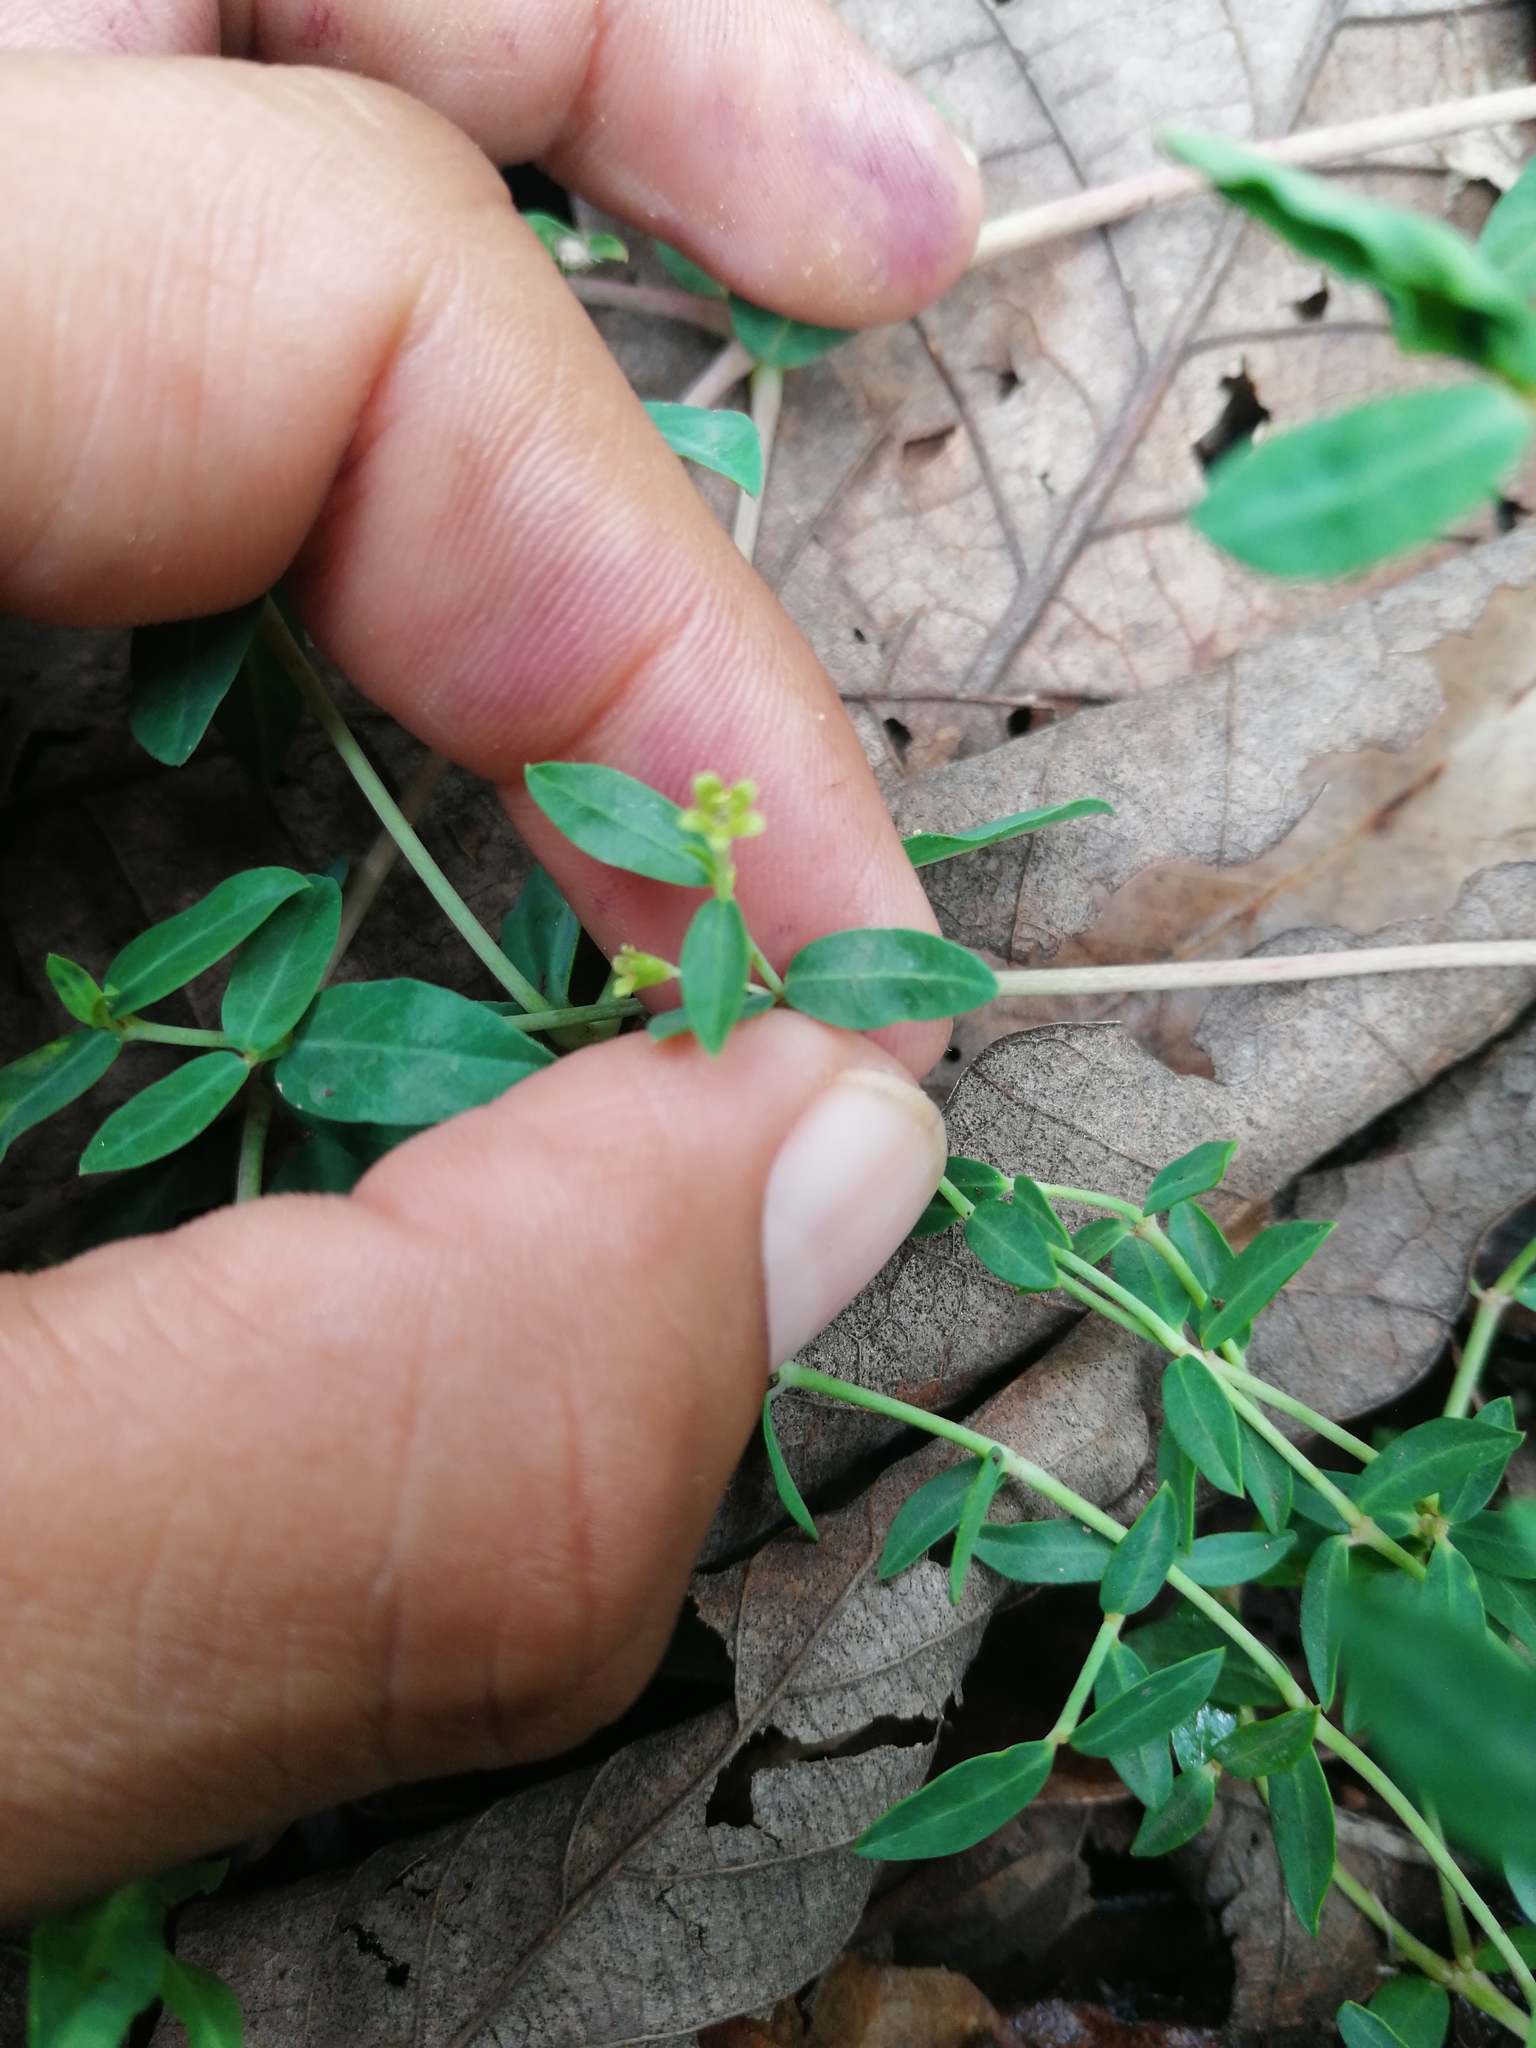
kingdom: Plantae
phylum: Tracheophyta
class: Magnoliopsida
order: Malpighiales
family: Euphorbiaceae
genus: Euphorbia
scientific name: Euphorbia macropus
